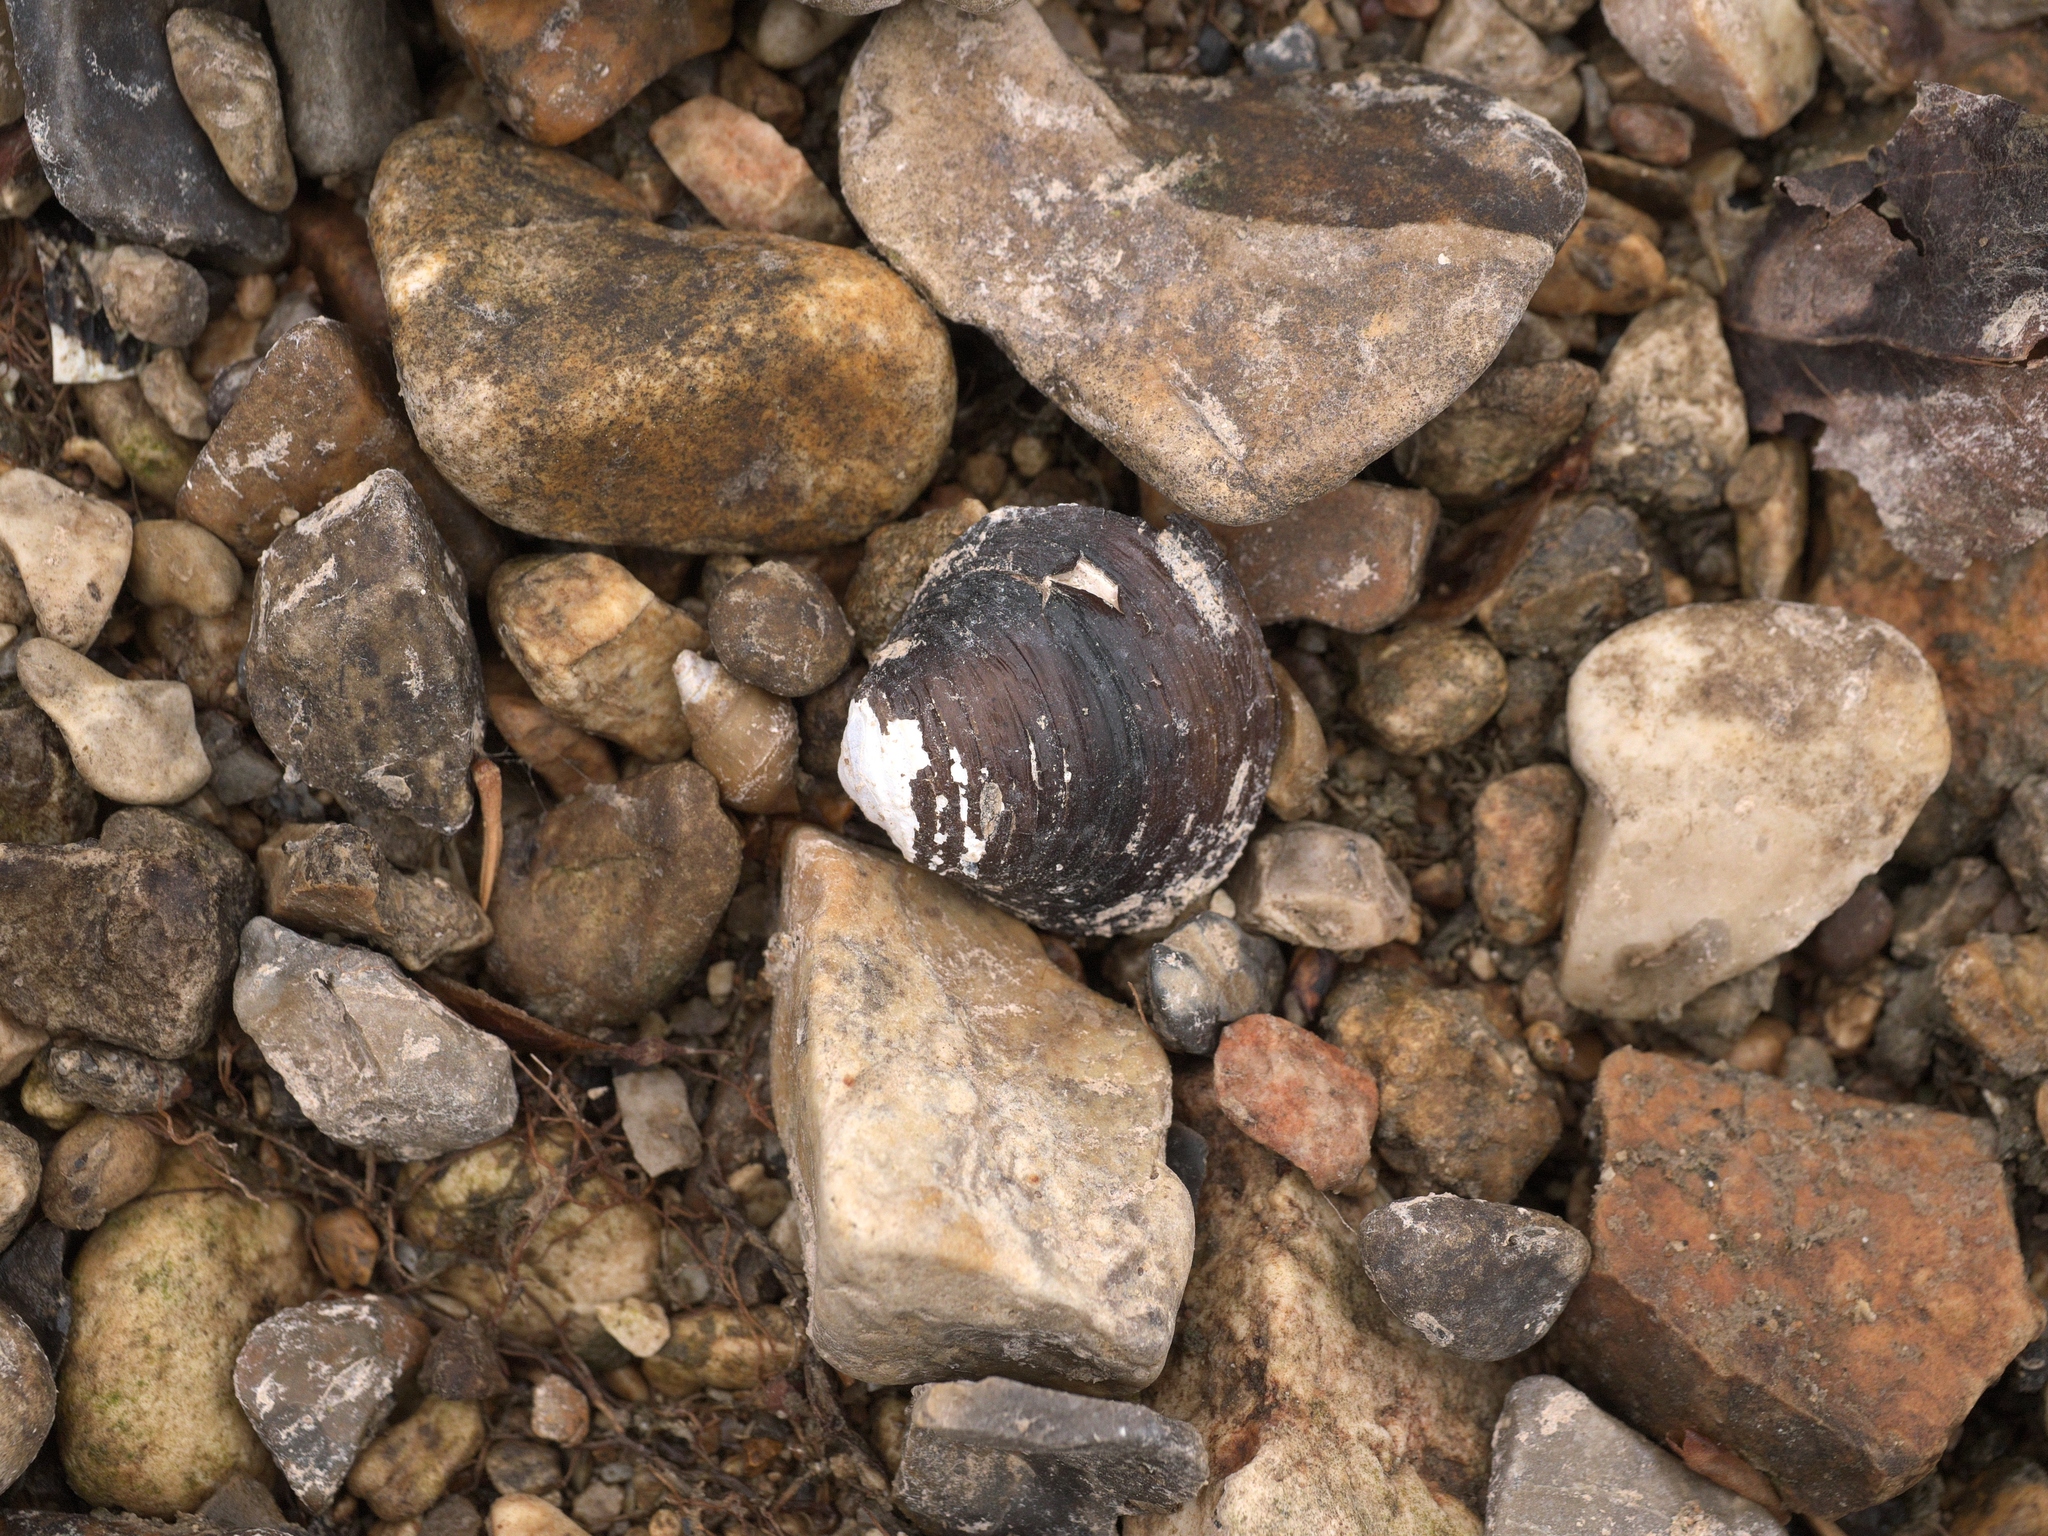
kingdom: Animalia
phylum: Mollusca
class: Bivalvia
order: Venerida
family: Cyrenidae
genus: Corbicula
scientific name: Corbicula fluminea
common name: Asian clam
